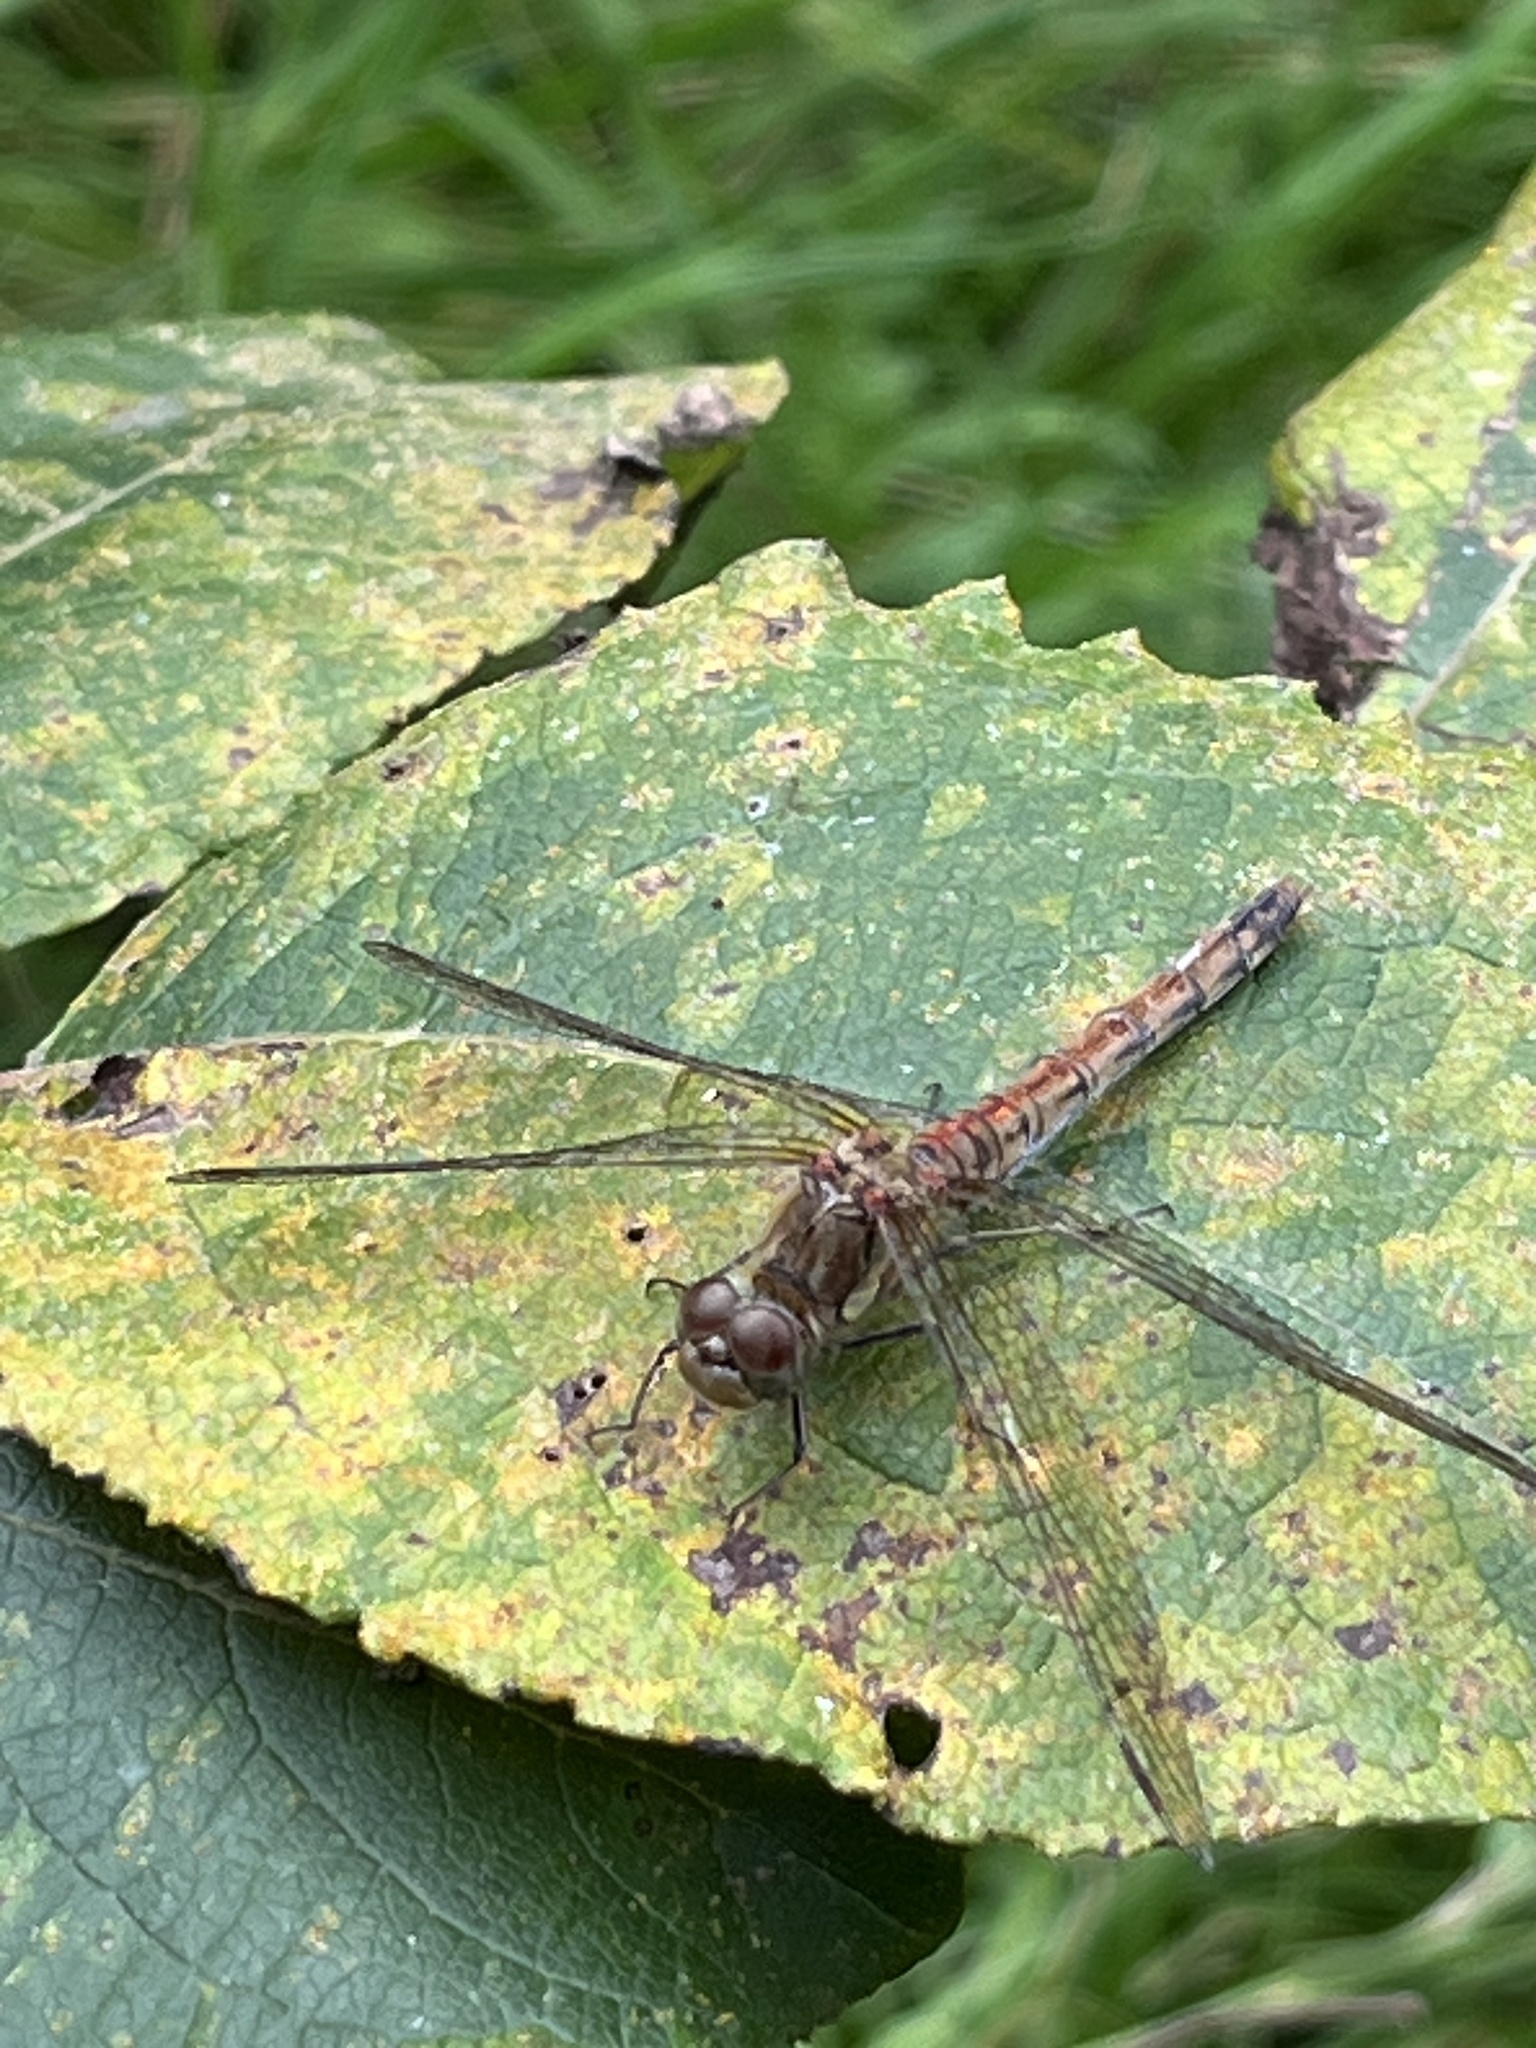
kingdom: Animalia
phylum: Arthropoda
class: Insecta
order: Odonata
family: Libellulidae
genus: Sympetrum
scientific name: Sympetrum striolatum
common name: Common darter
